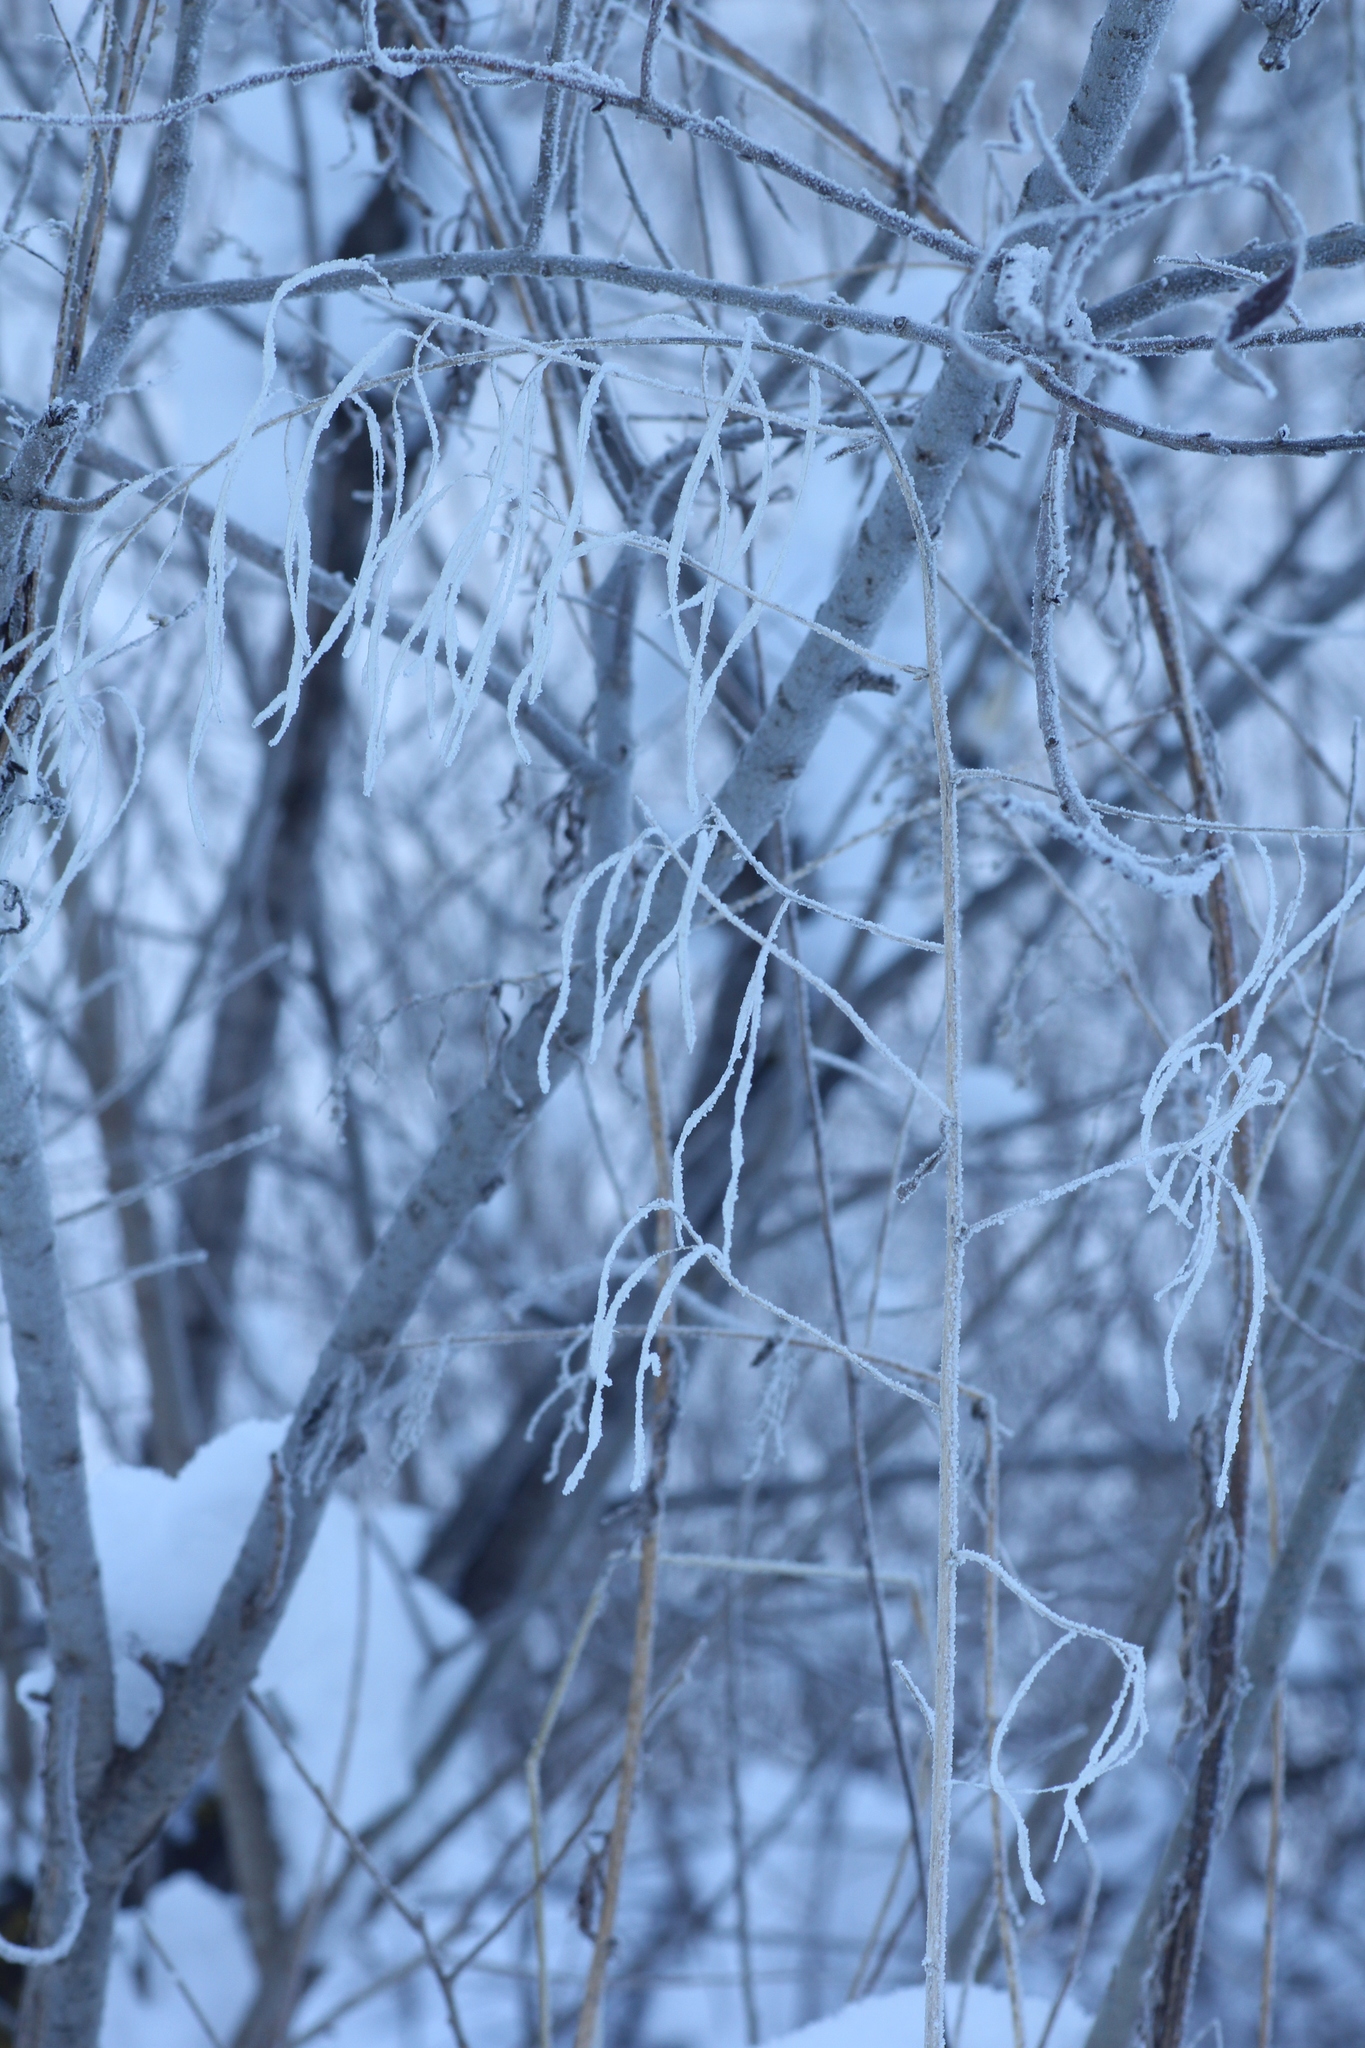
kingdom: Plantae
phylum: Tracheophyta
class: Magnoliopsida
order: Brassicales
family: Brassicaceae
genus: Catolobus
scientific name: Catolobus pendulus
